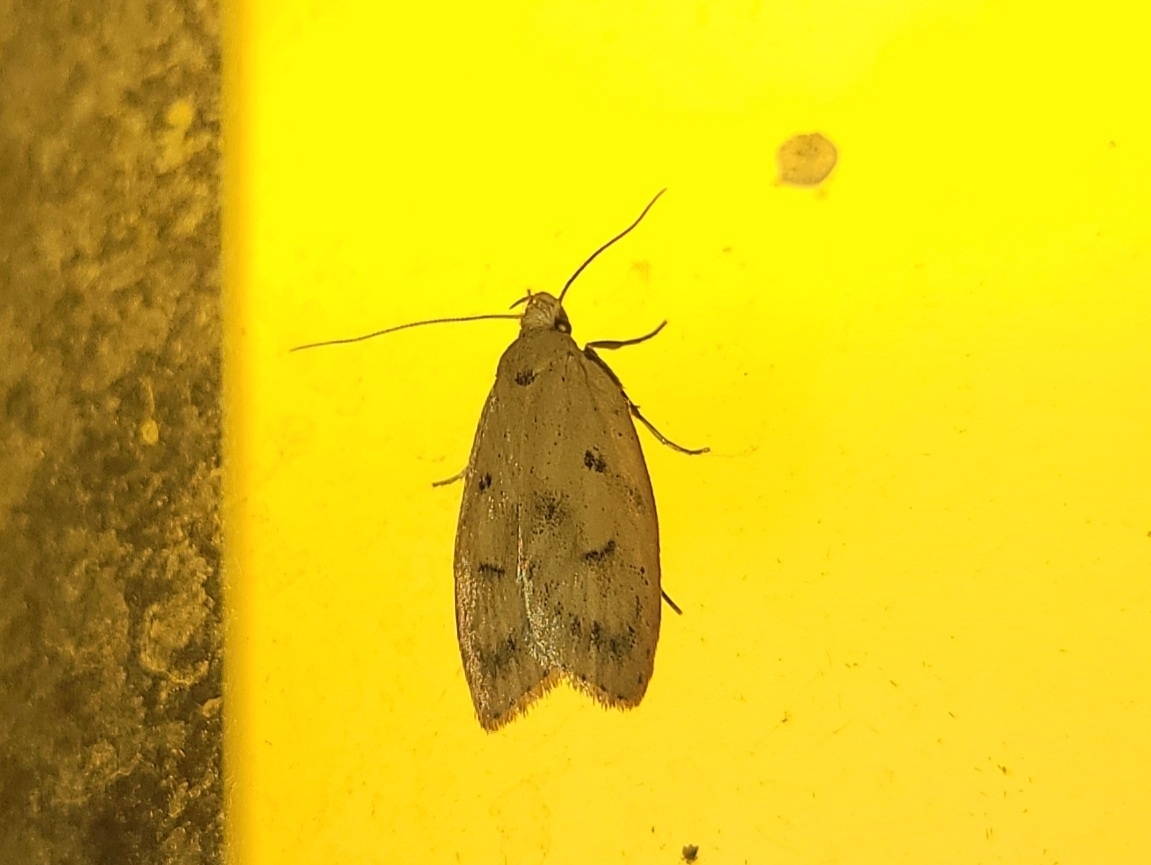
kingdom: Animalia
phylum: Arthropoda
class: Insecta
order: Lepidoptera
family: Peleopodidae
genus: Machimia
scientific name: Machimia tentoriferella
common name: Gold-striped leaftier moth
